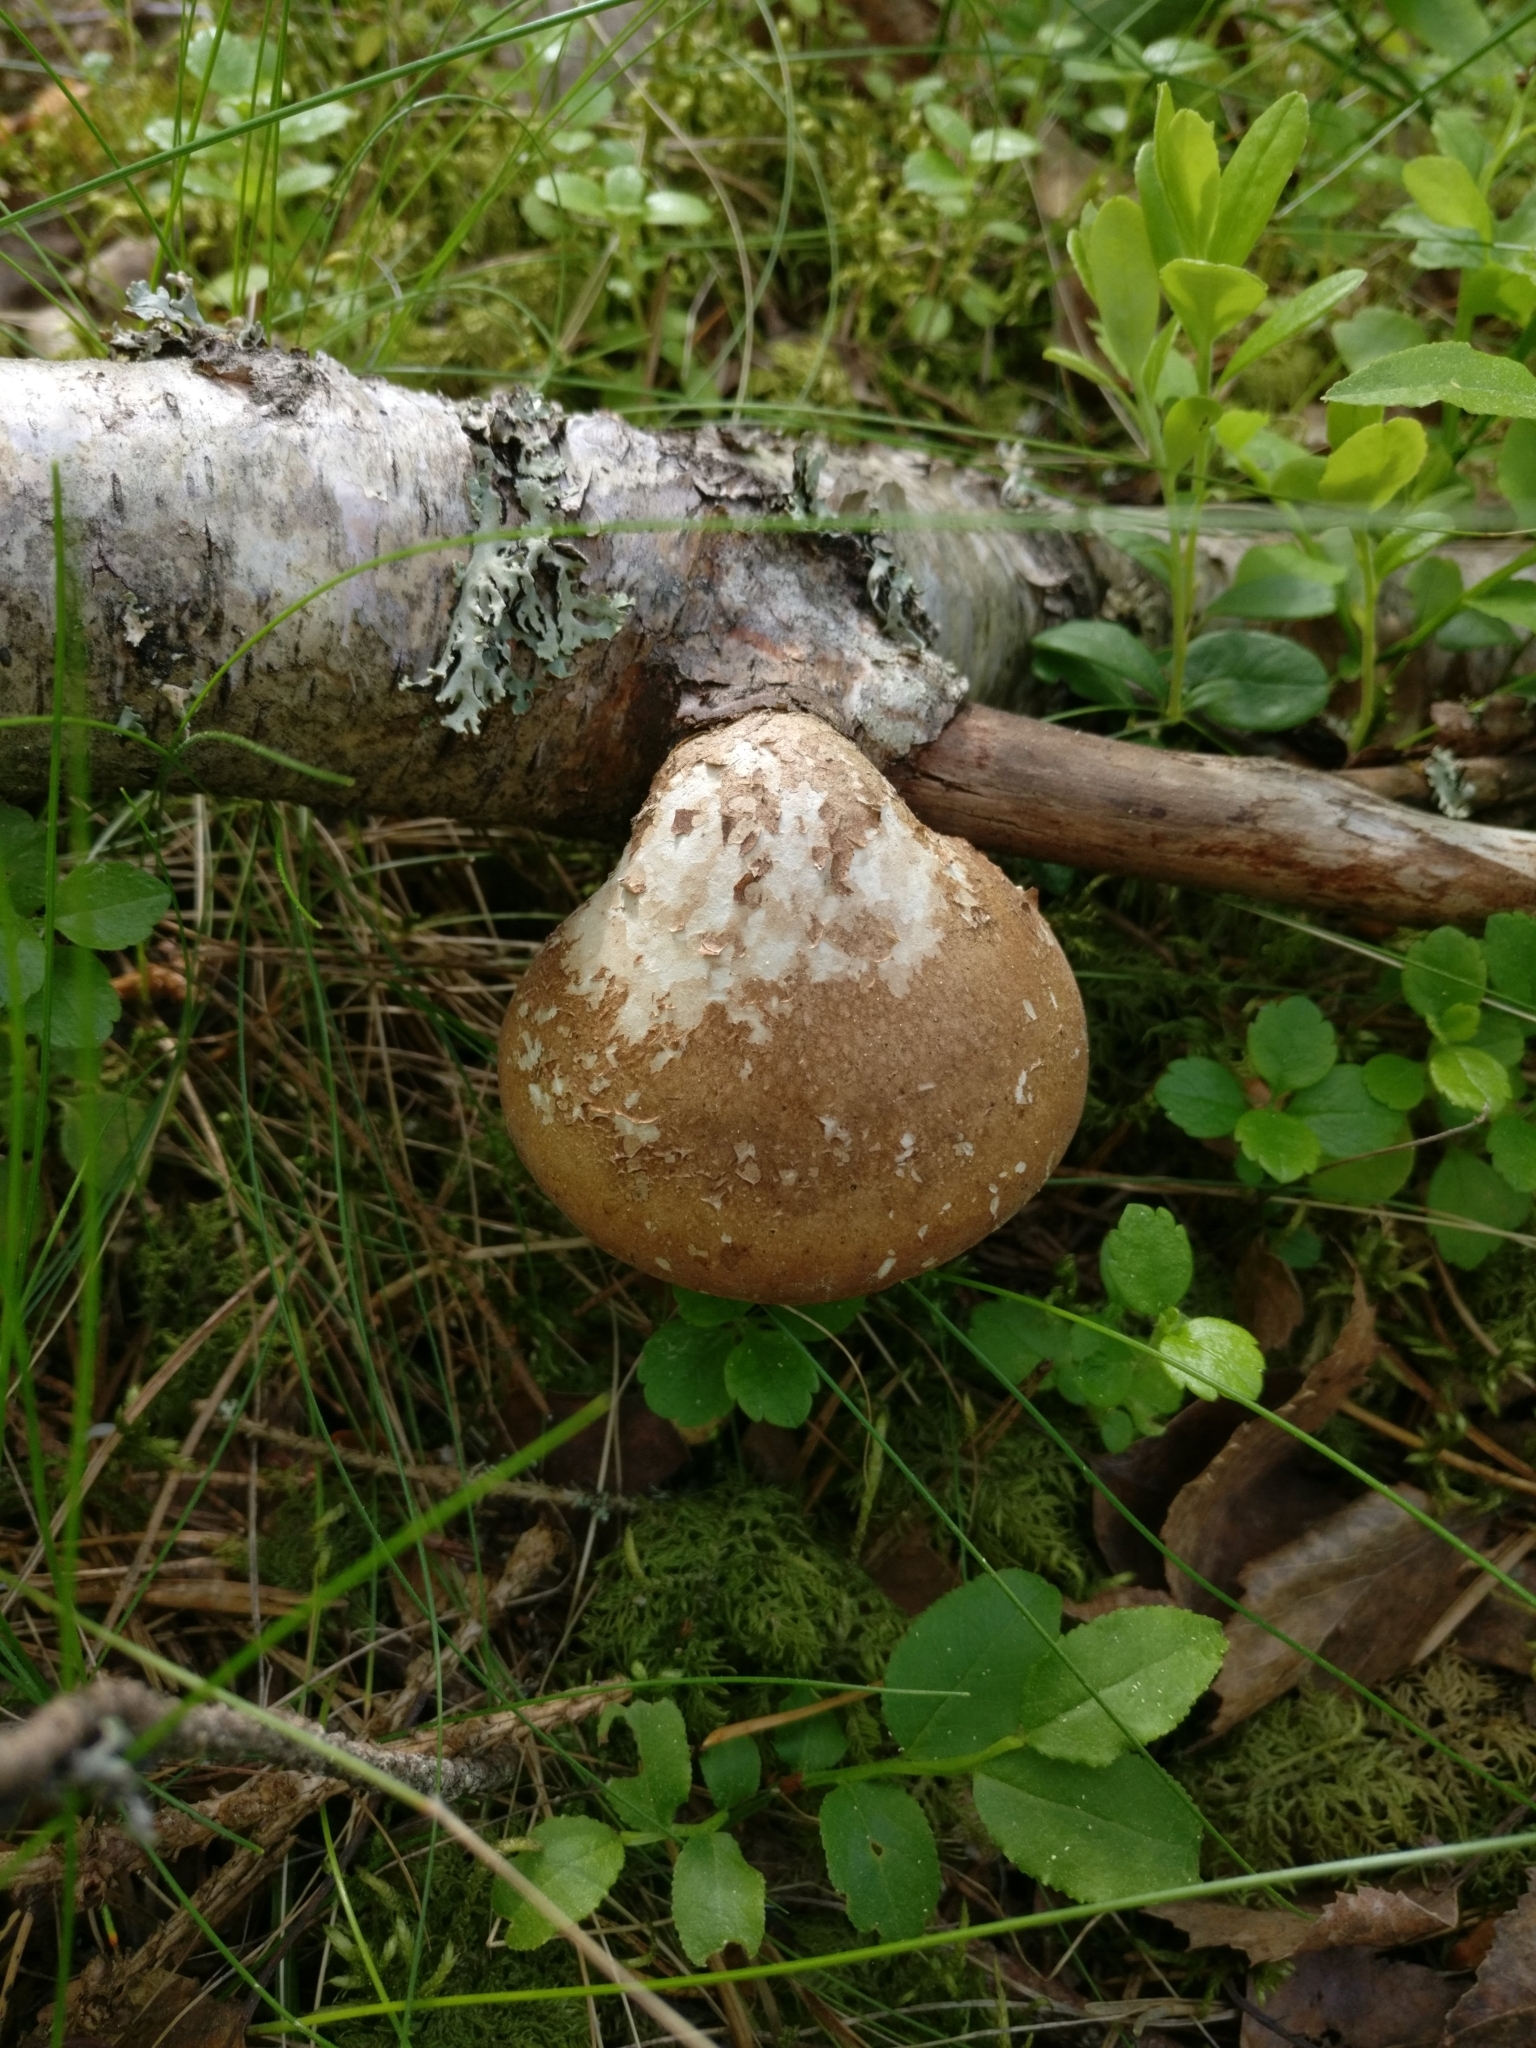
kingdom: Fungi
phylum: Basidiomycota
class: Agaricomycetes
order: Polyporales
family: Fomitopsidaceae
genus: Fomitopsis
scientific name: Fomitopsis betulina
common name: Birch polypore
